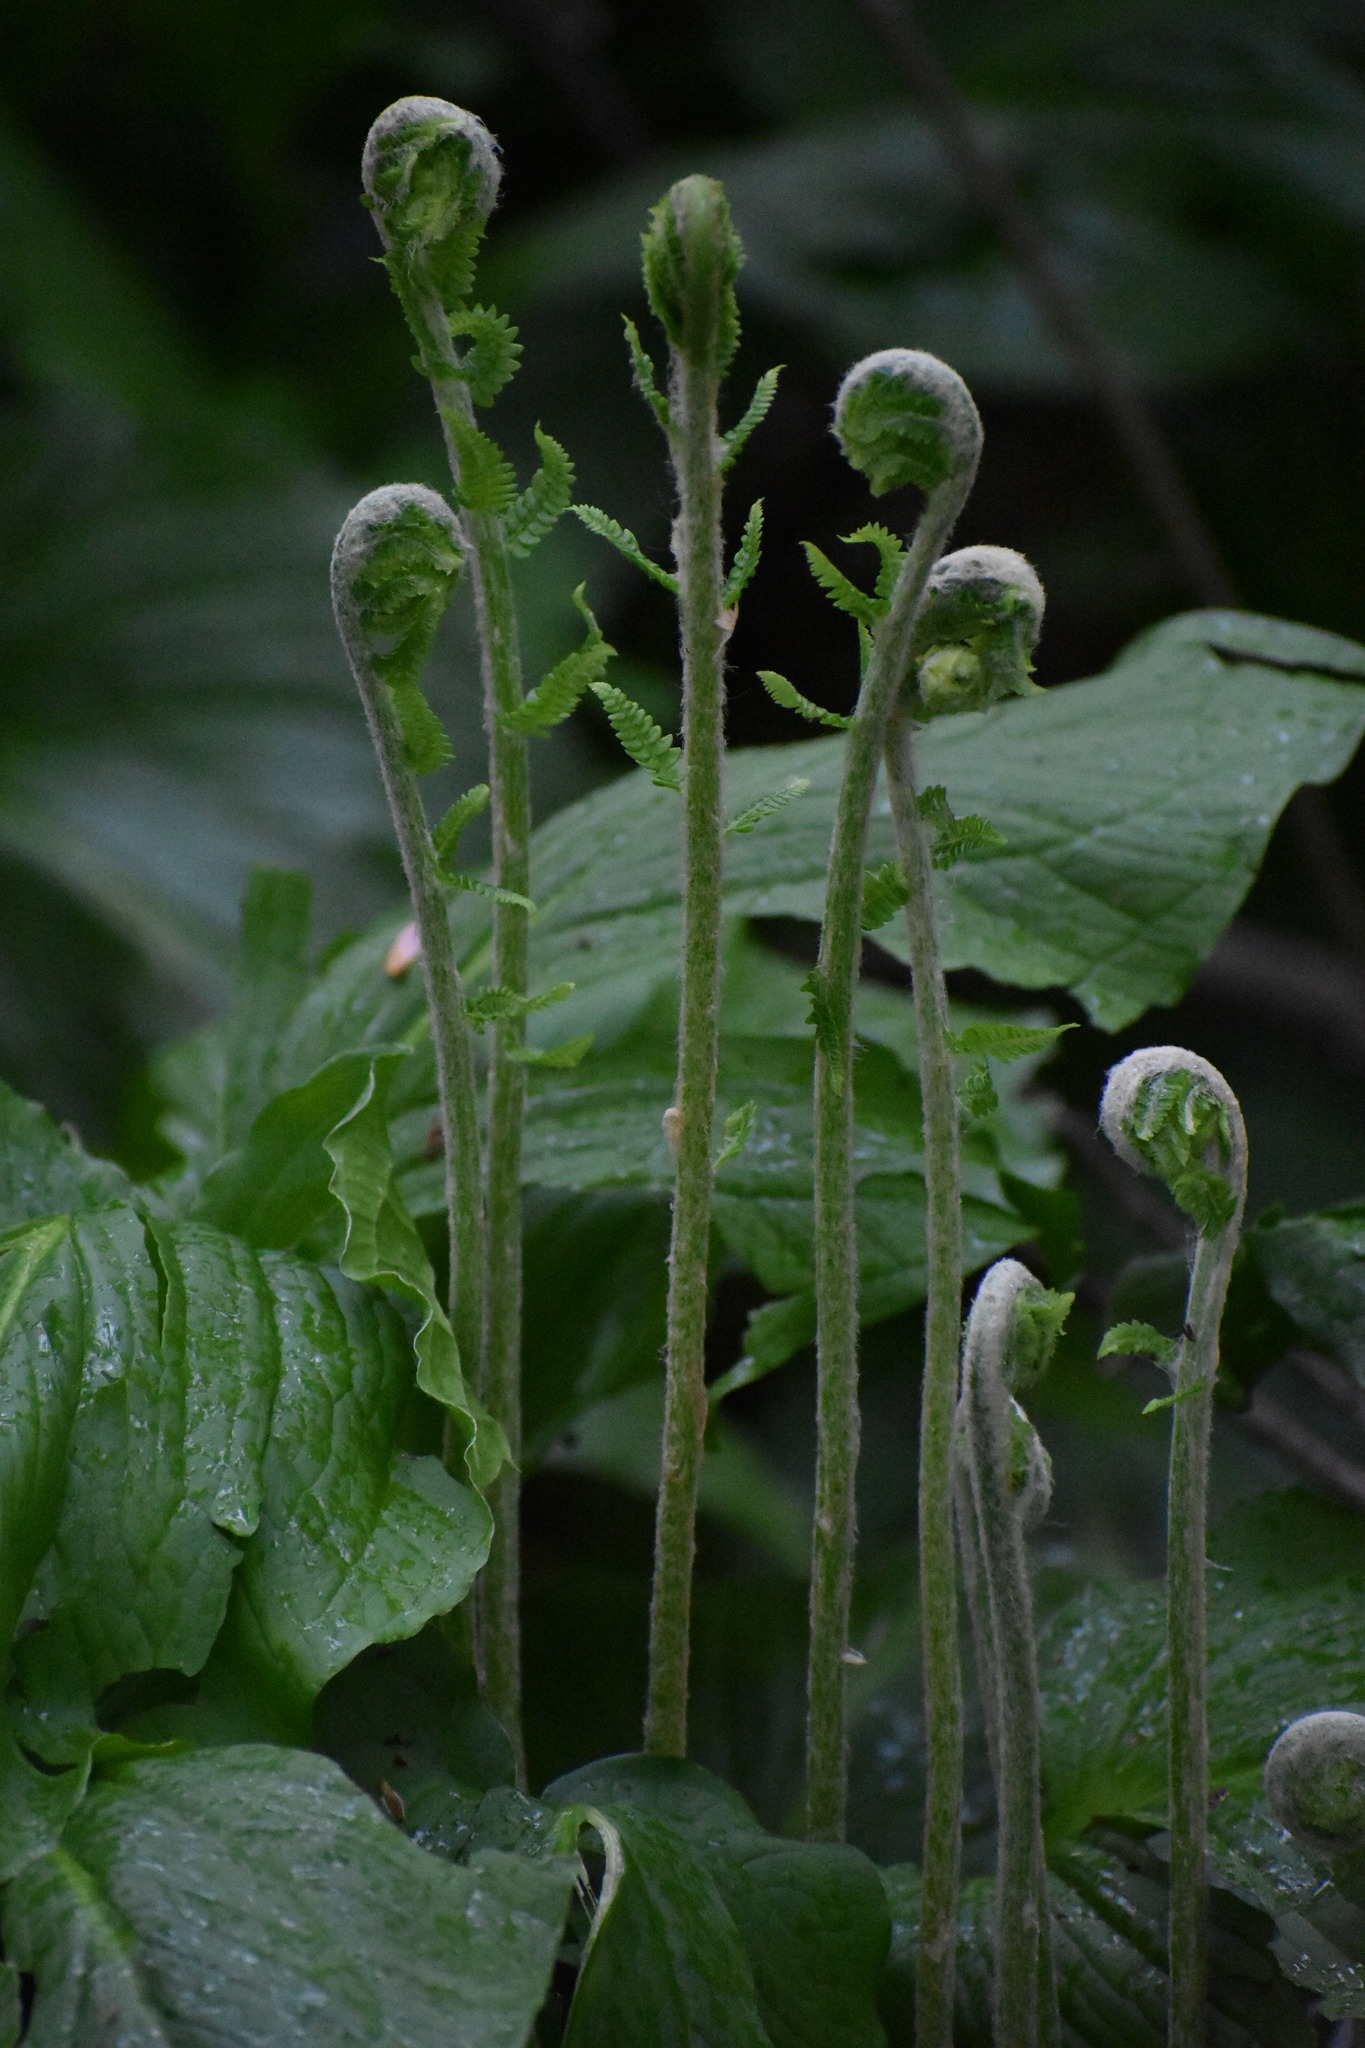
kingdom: Plantae
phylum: Tracheophyta
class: Polypodiopsida
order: Osmundales
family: Osmundaceae
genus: Osmundastrum
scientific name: Osmundastrum cinnamomeum
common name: Cinnamon fern
